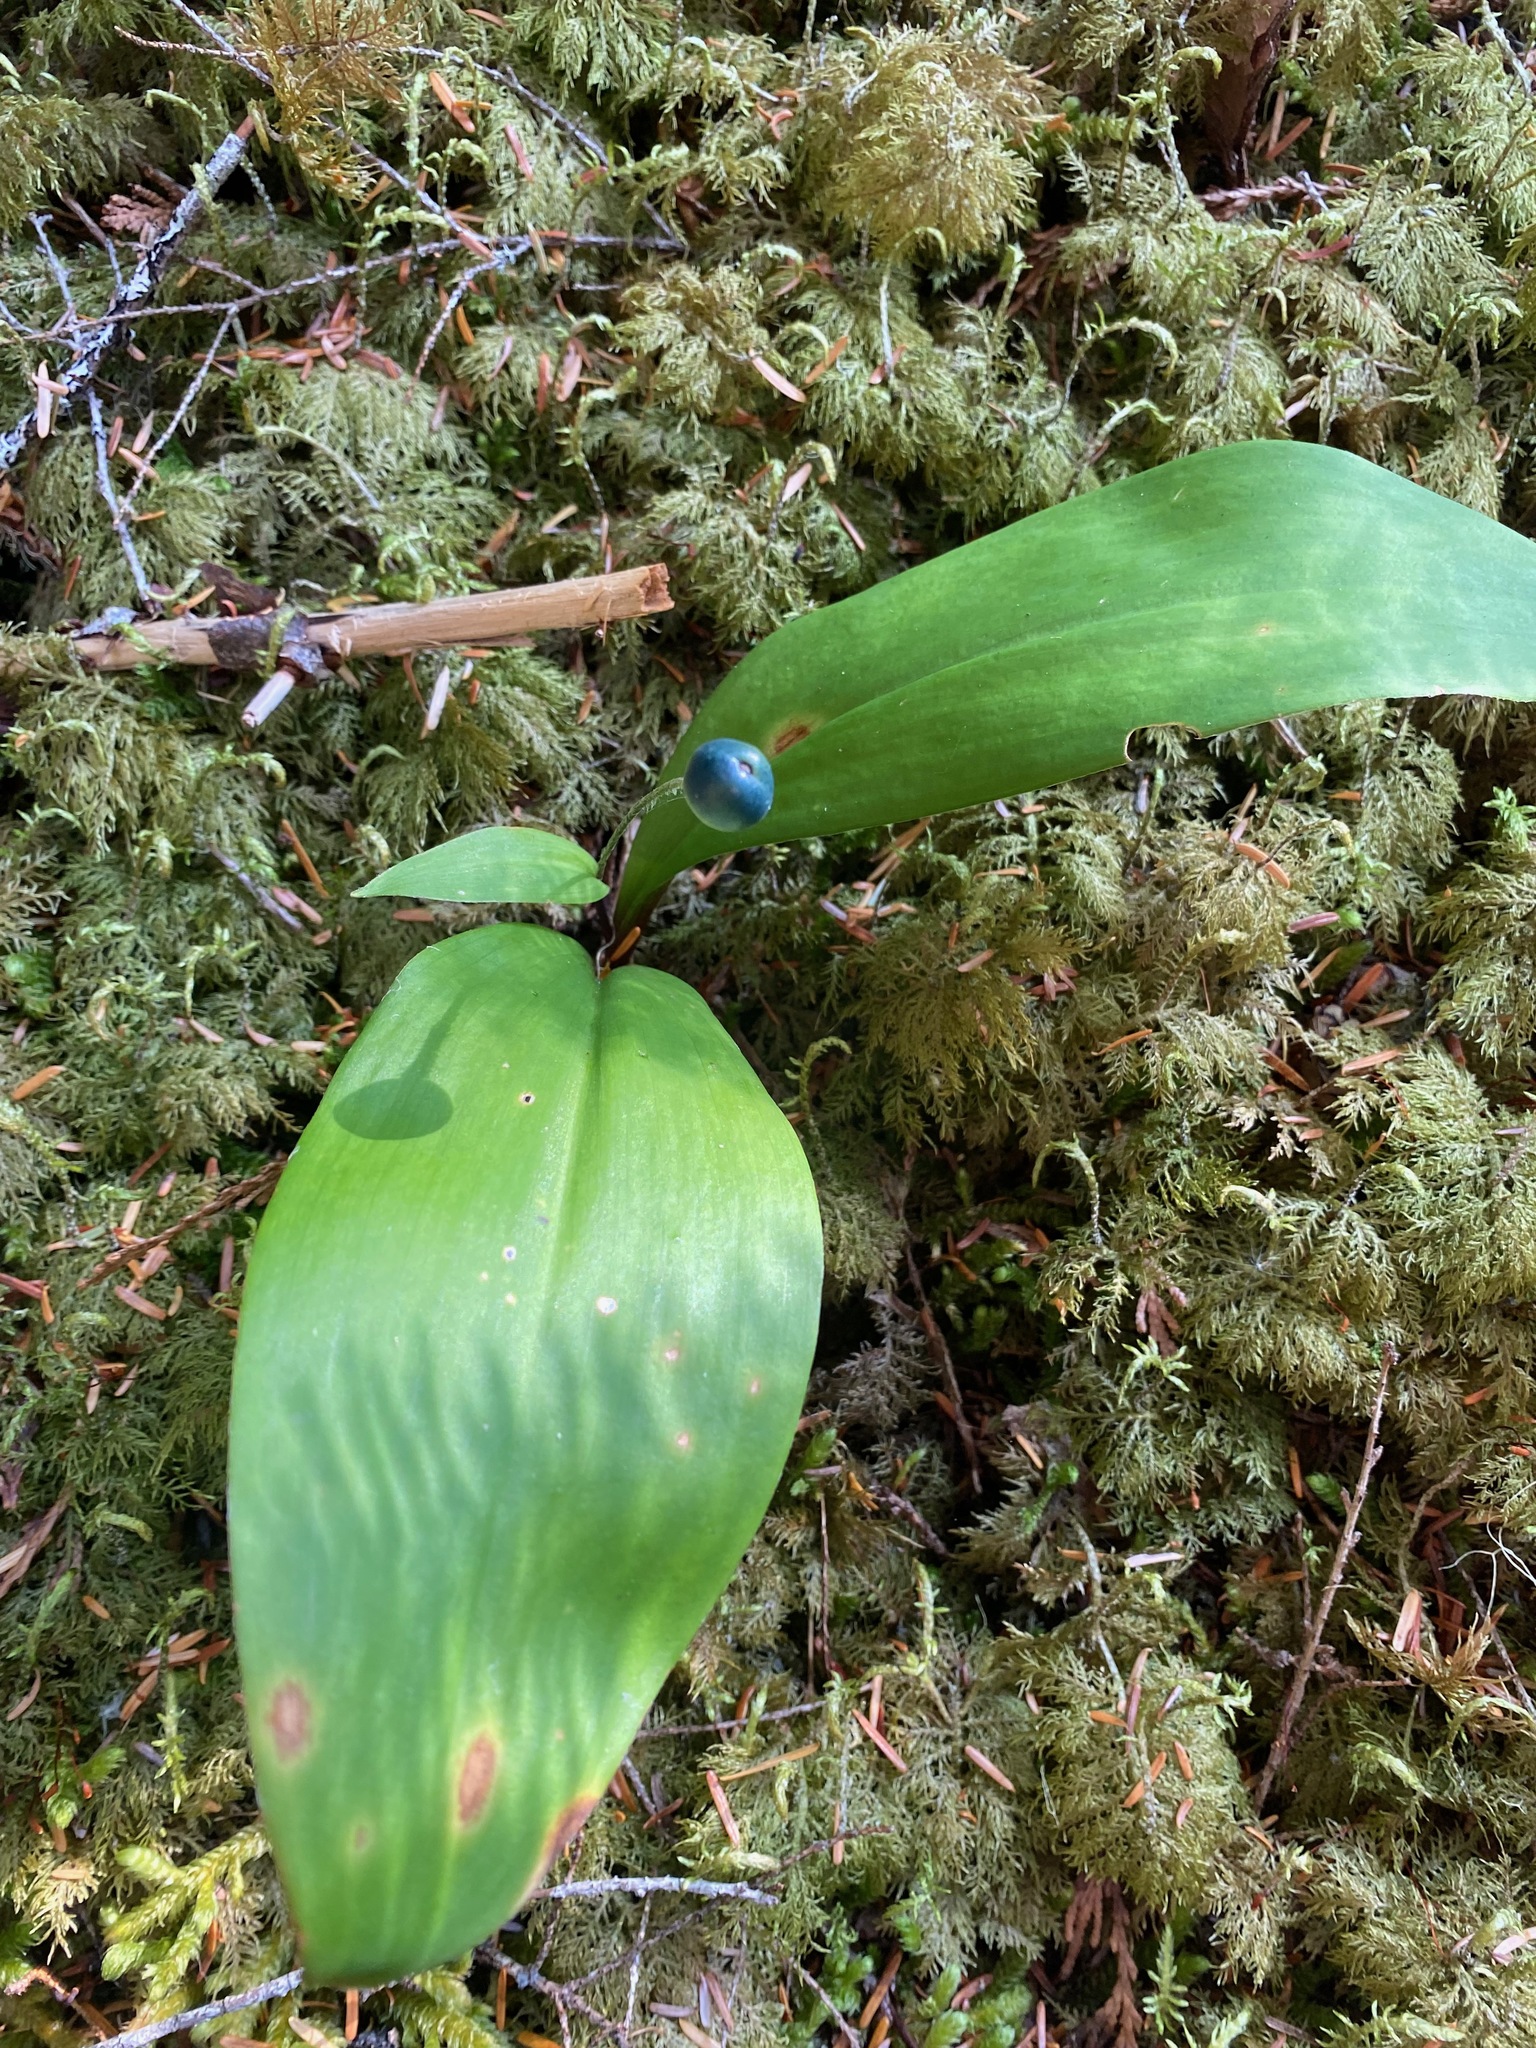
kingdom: Plantae
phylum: Tracheophyta
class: Liliopsida
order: Liliales
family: Liliaceae
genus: Clintonia
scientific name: Clintonia uniflora
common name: Queen's cup
